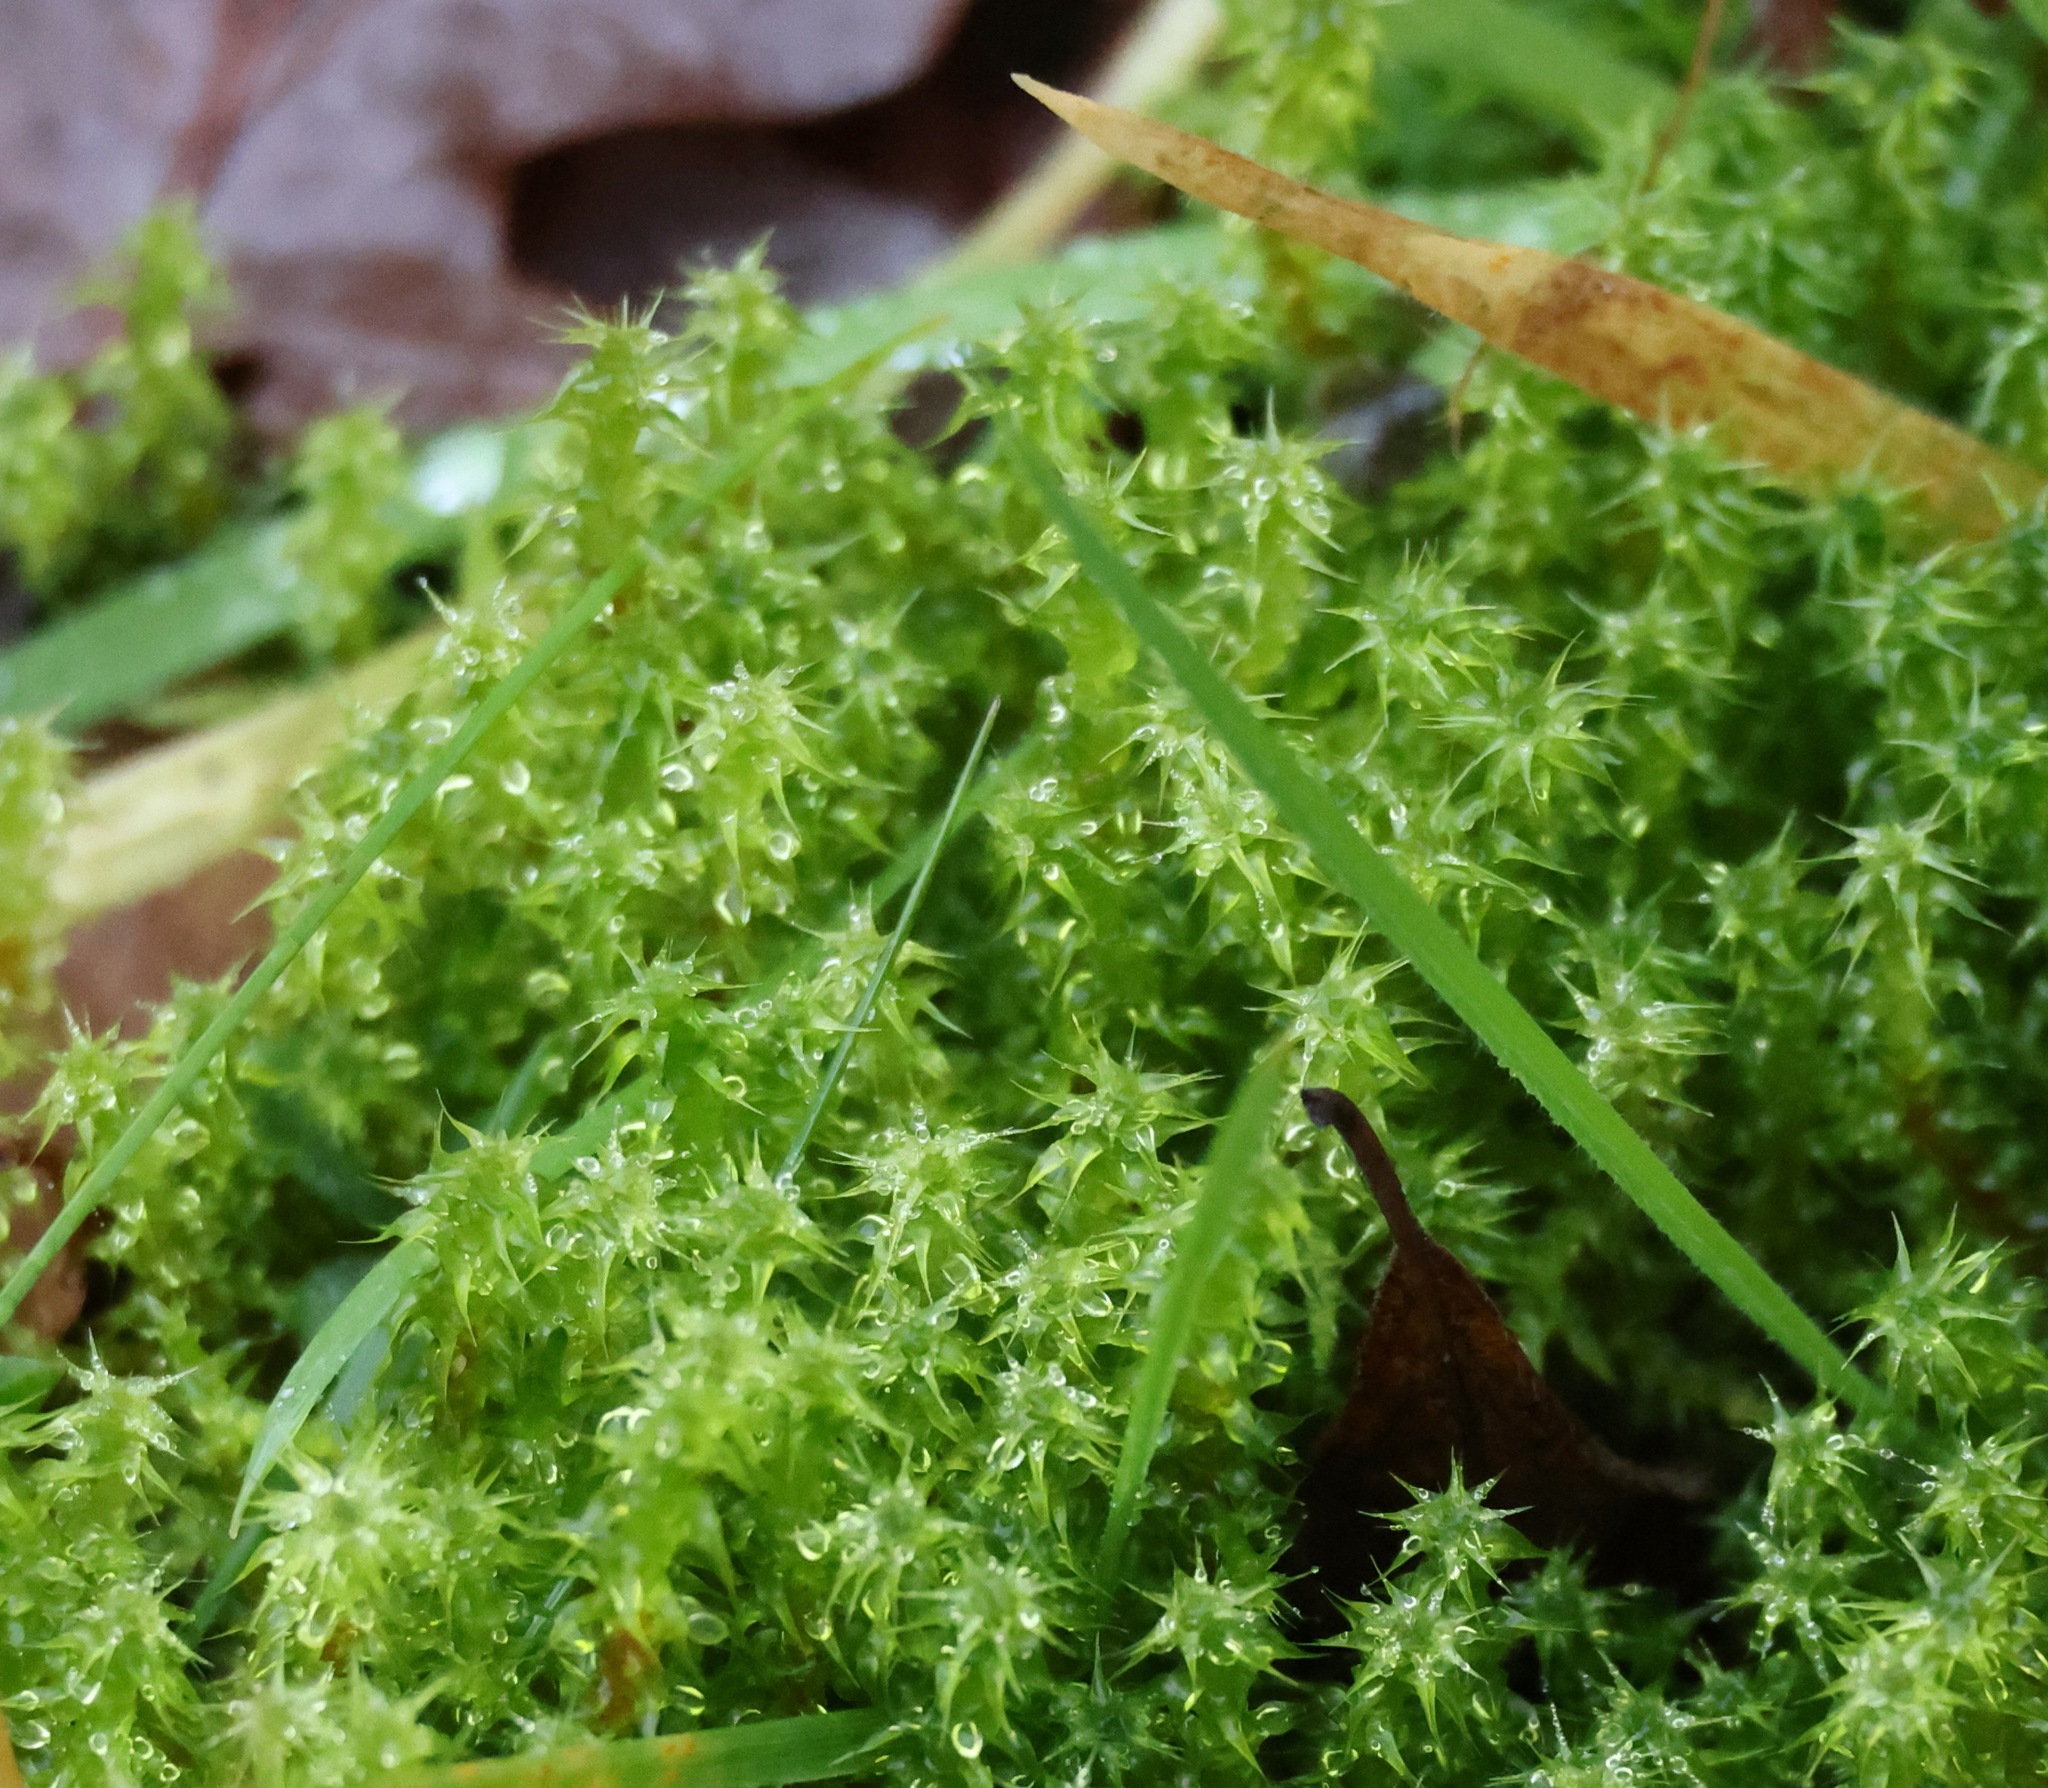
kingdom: Plantae
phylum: Bryophyta
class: Bryopsida
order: Hypnales
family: Hylocomiaceae
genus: Rhytidiadelphus
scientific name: Rhytidiadelphus squarrosus
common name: Springy turf-moss
